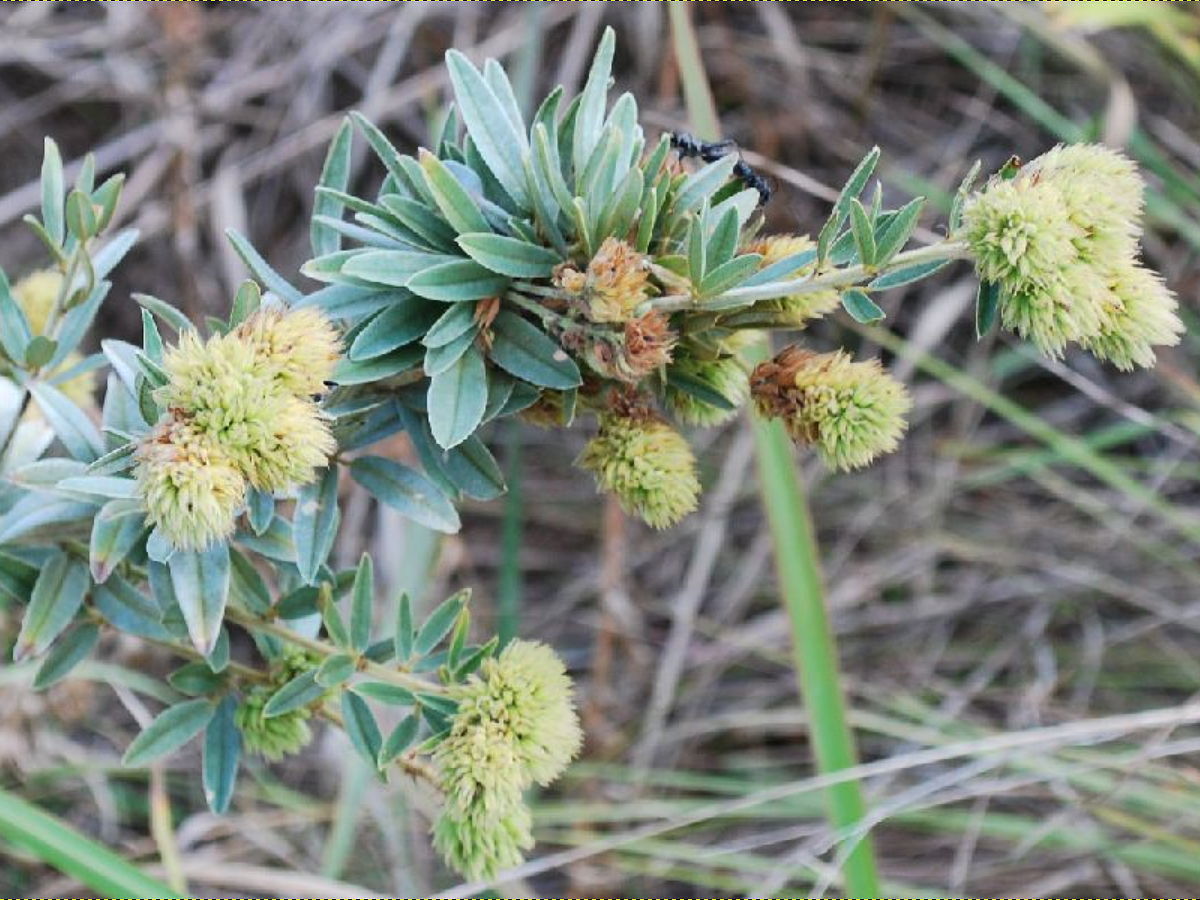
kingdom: Plantae
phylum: Tracheophyta
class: Magnoliopsida
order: Fabales
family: Fabaceae
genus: Lespedeza
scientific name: Lespedeza capitata
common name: Dusty clover
